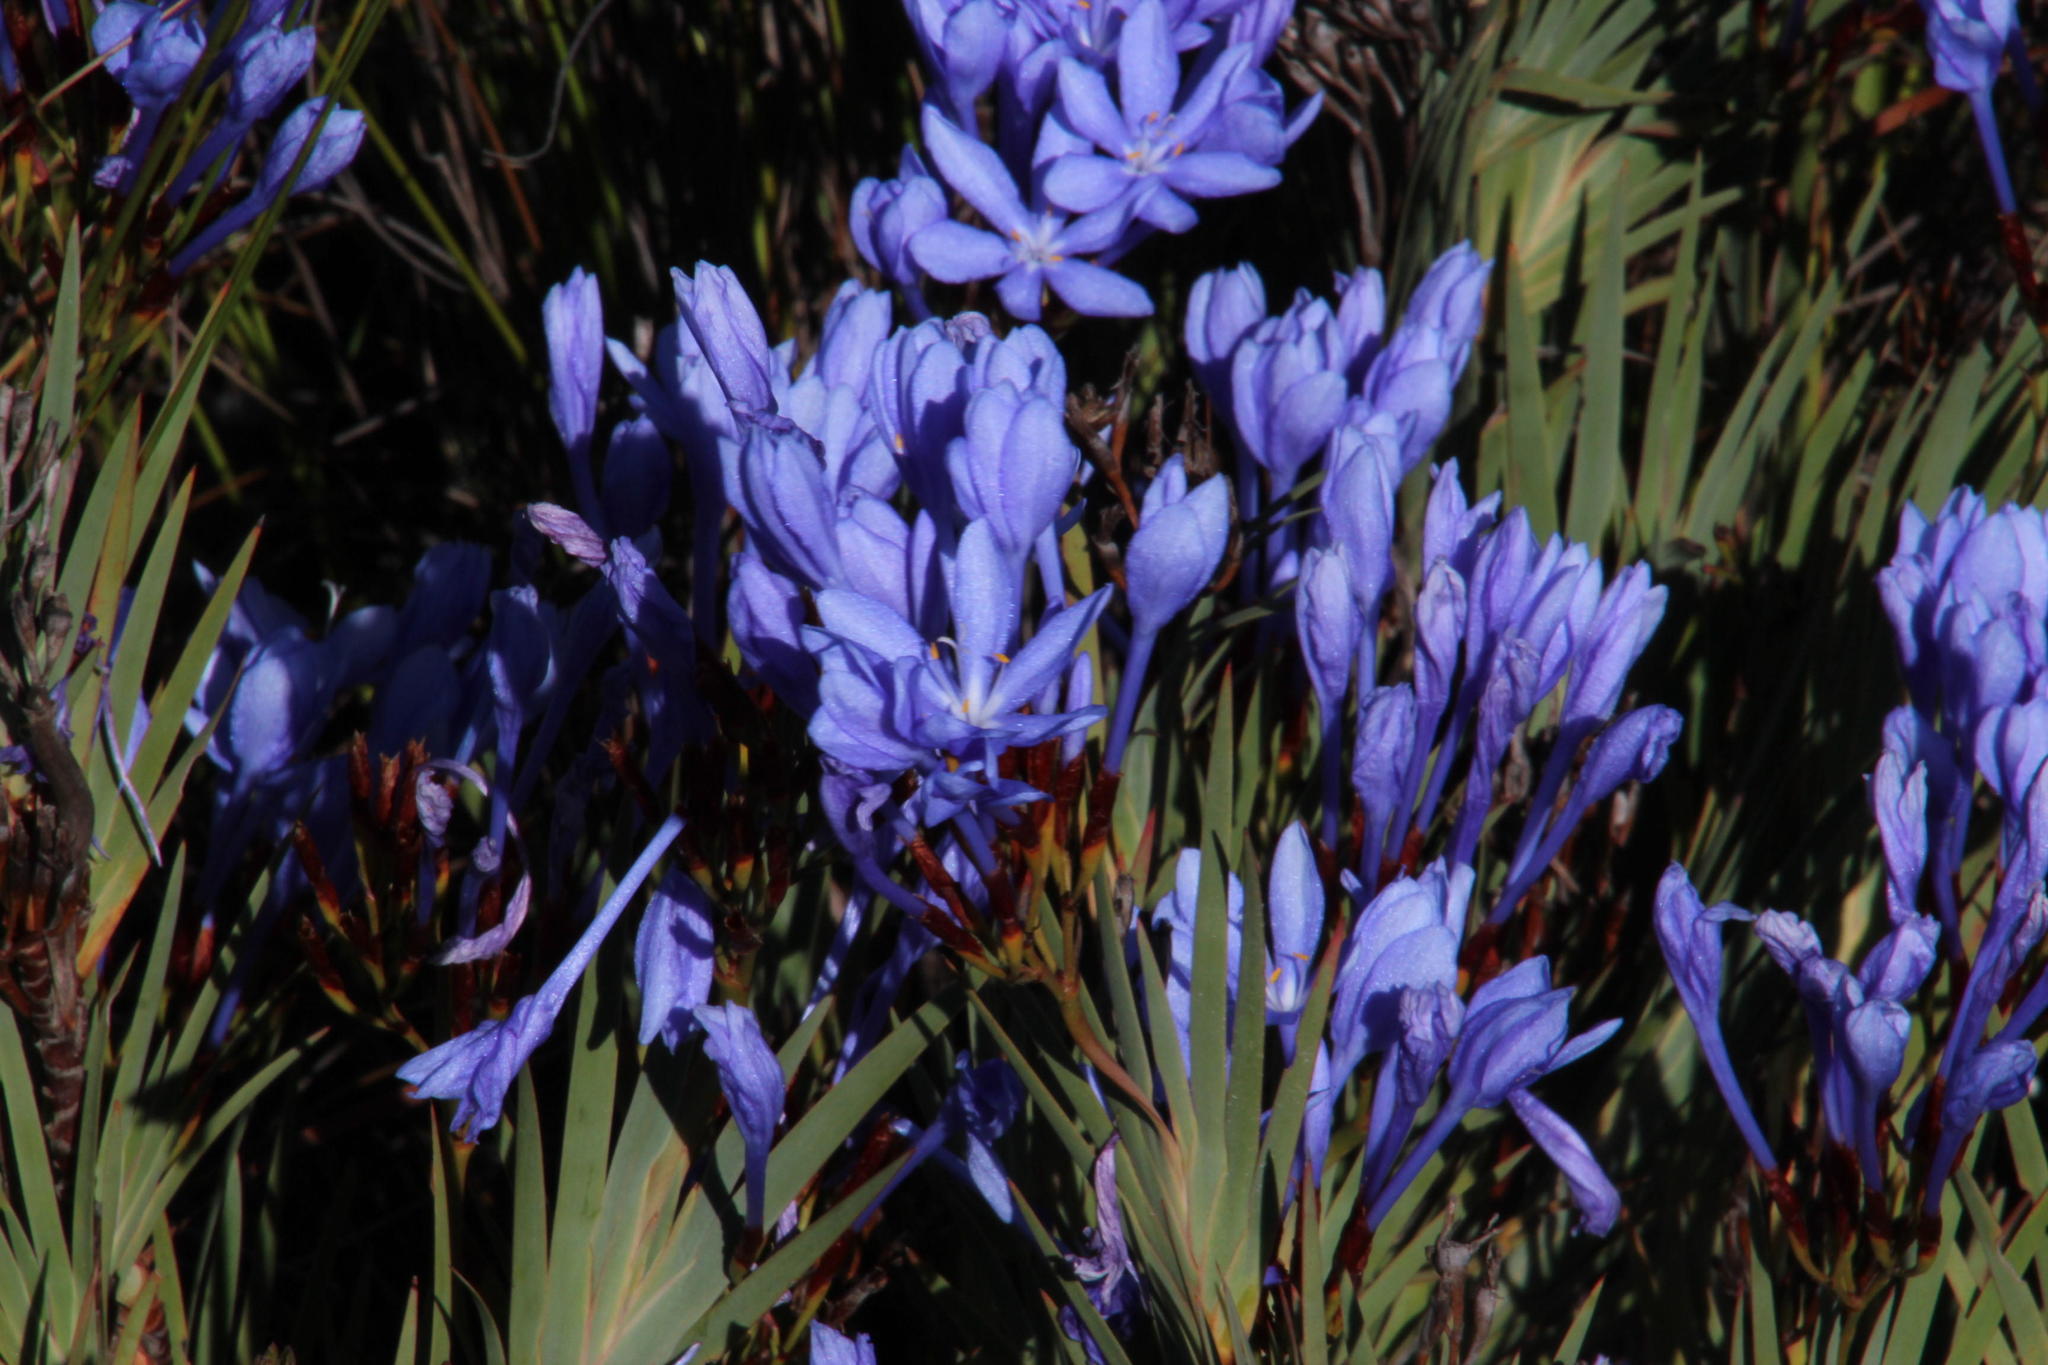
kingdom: Plantae
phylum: Tracheophyta
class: Liliopsida
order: Asparagales
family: Iridaceae
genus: Nivenia
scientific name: Nivenia stokoei
